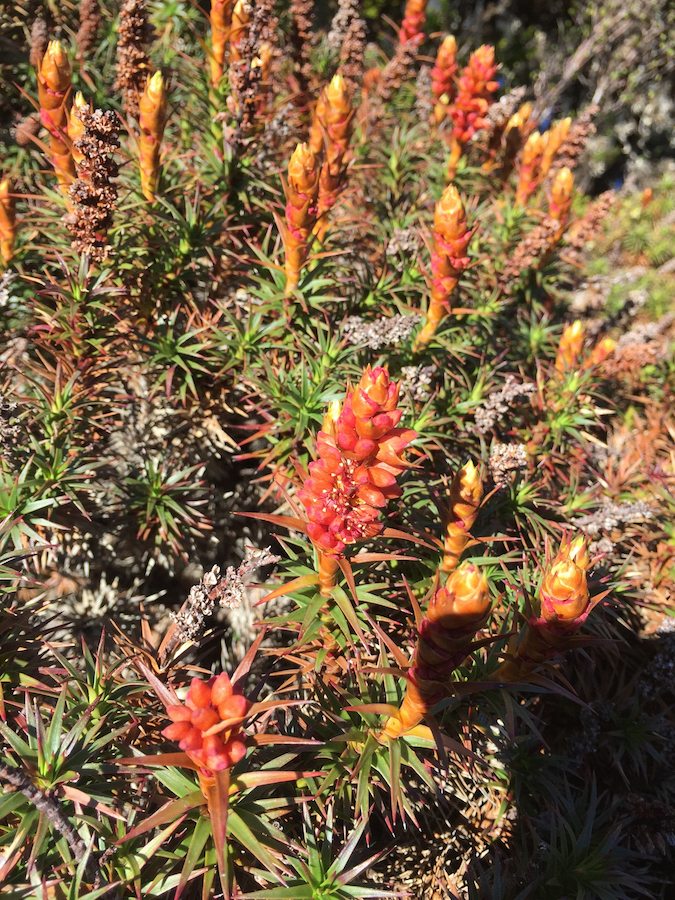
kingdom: Plantae
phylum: Tracheophyta
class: Magnoliopsida
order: Ericales
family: Ericaceae
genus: Dracophyllum
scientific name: Dracophyllum persistentifolium
